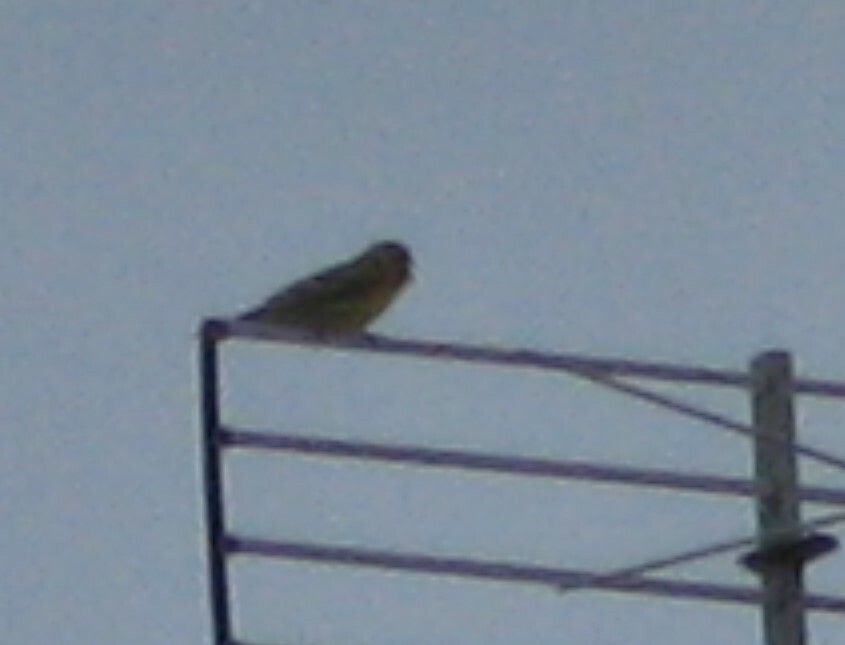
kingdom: Animalia
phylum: Chordata
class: Aves
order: Passeriformes
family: Fringillidae
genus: Serinus
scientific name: Serinus serinus
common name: European serin
